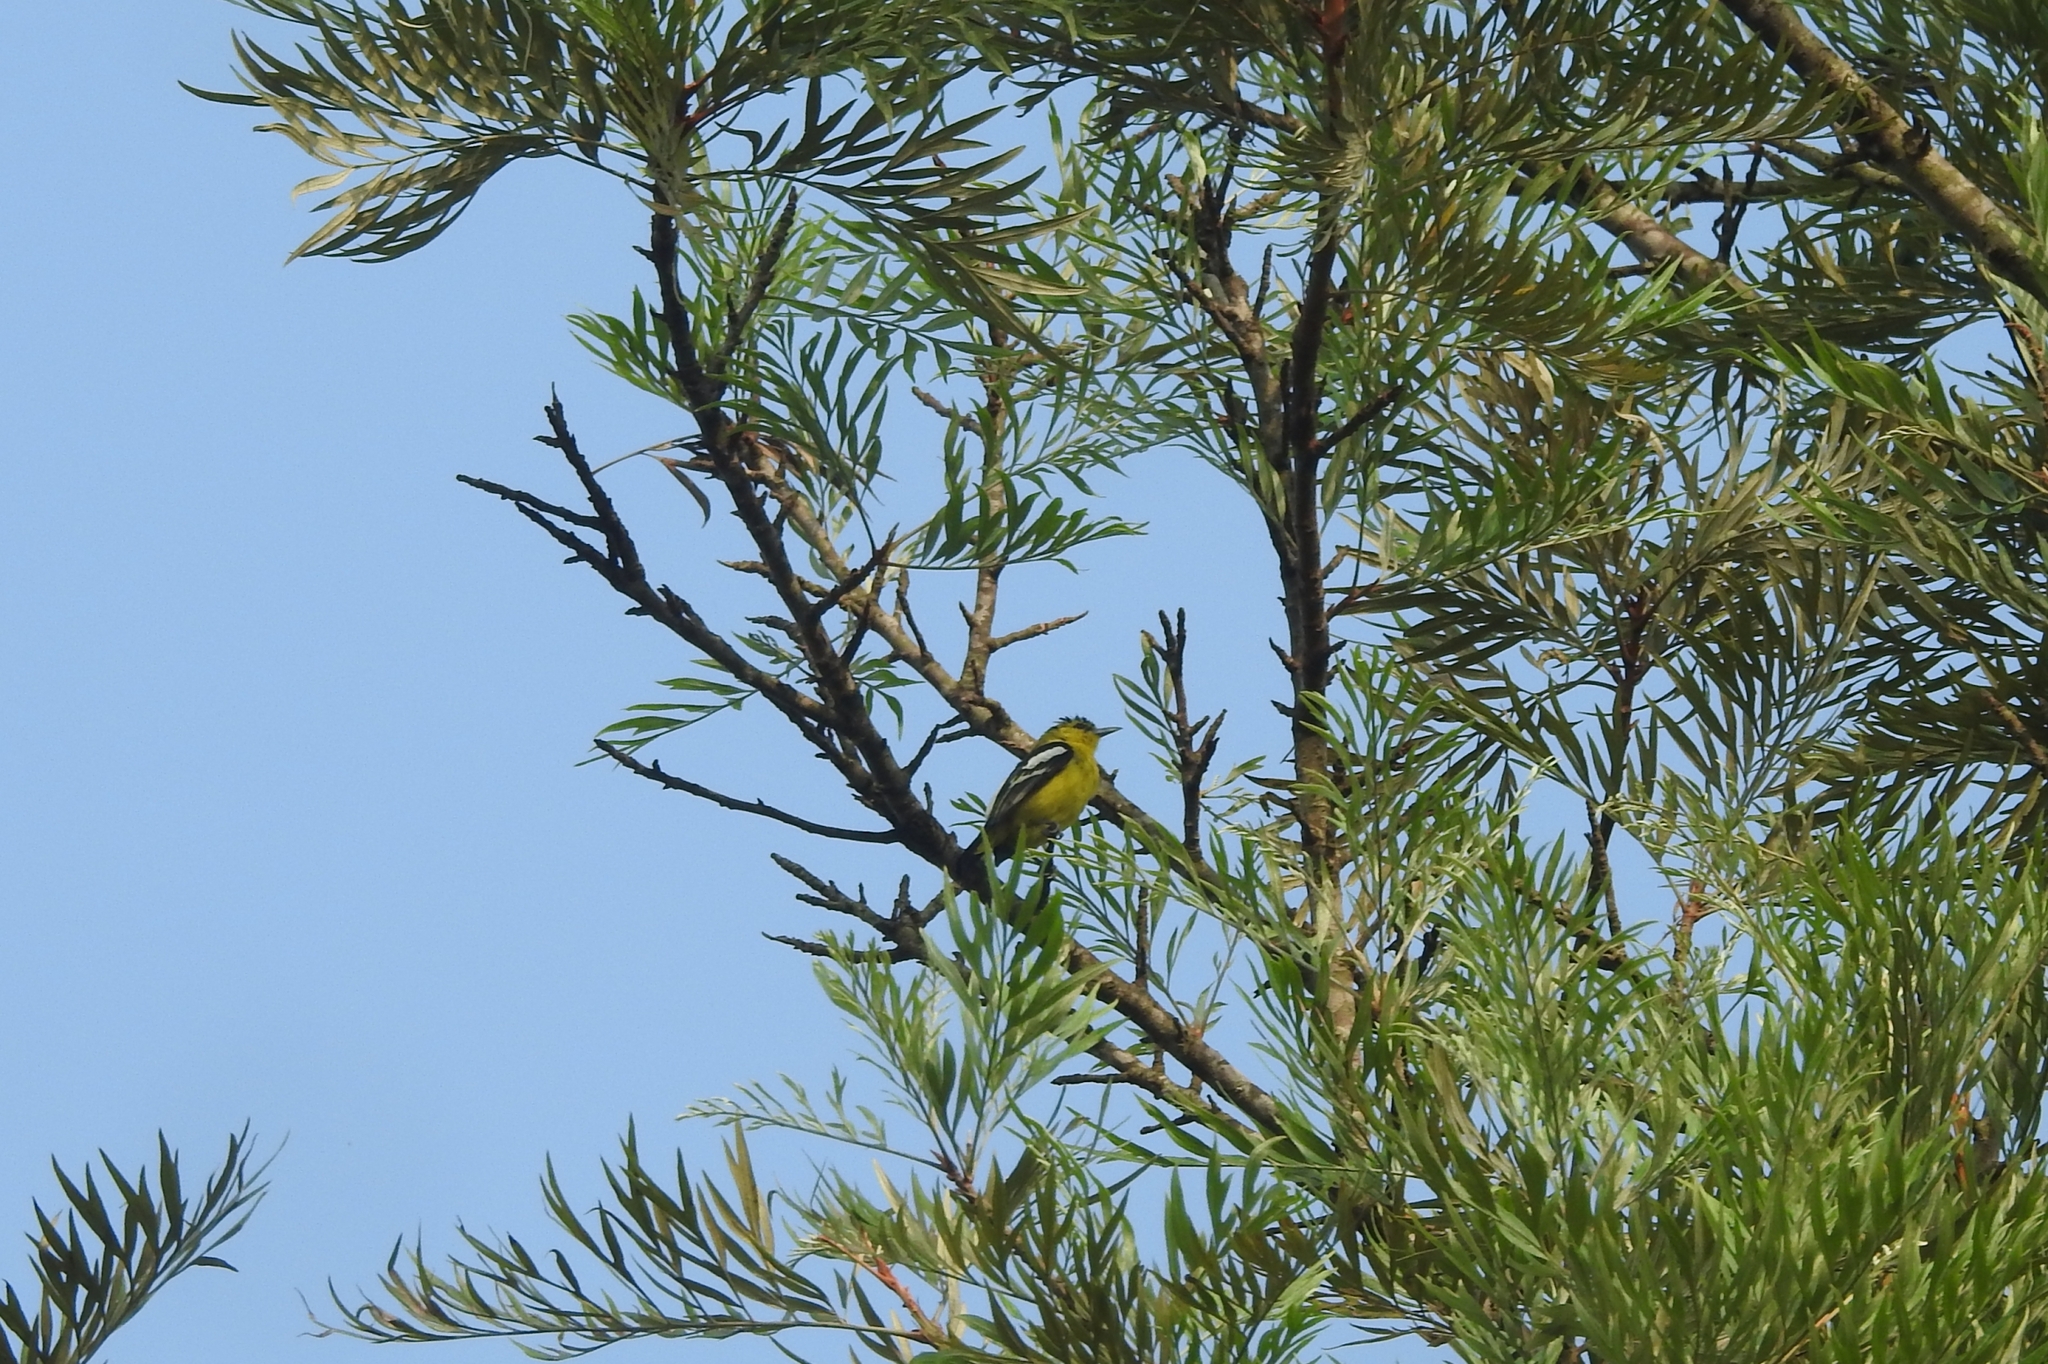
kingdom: Animalia
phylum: Chordata
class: Aves
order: Passeriformes
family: Aegithinidae
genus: Aegithina
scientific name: Aegithina tiphia
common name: Common iora
